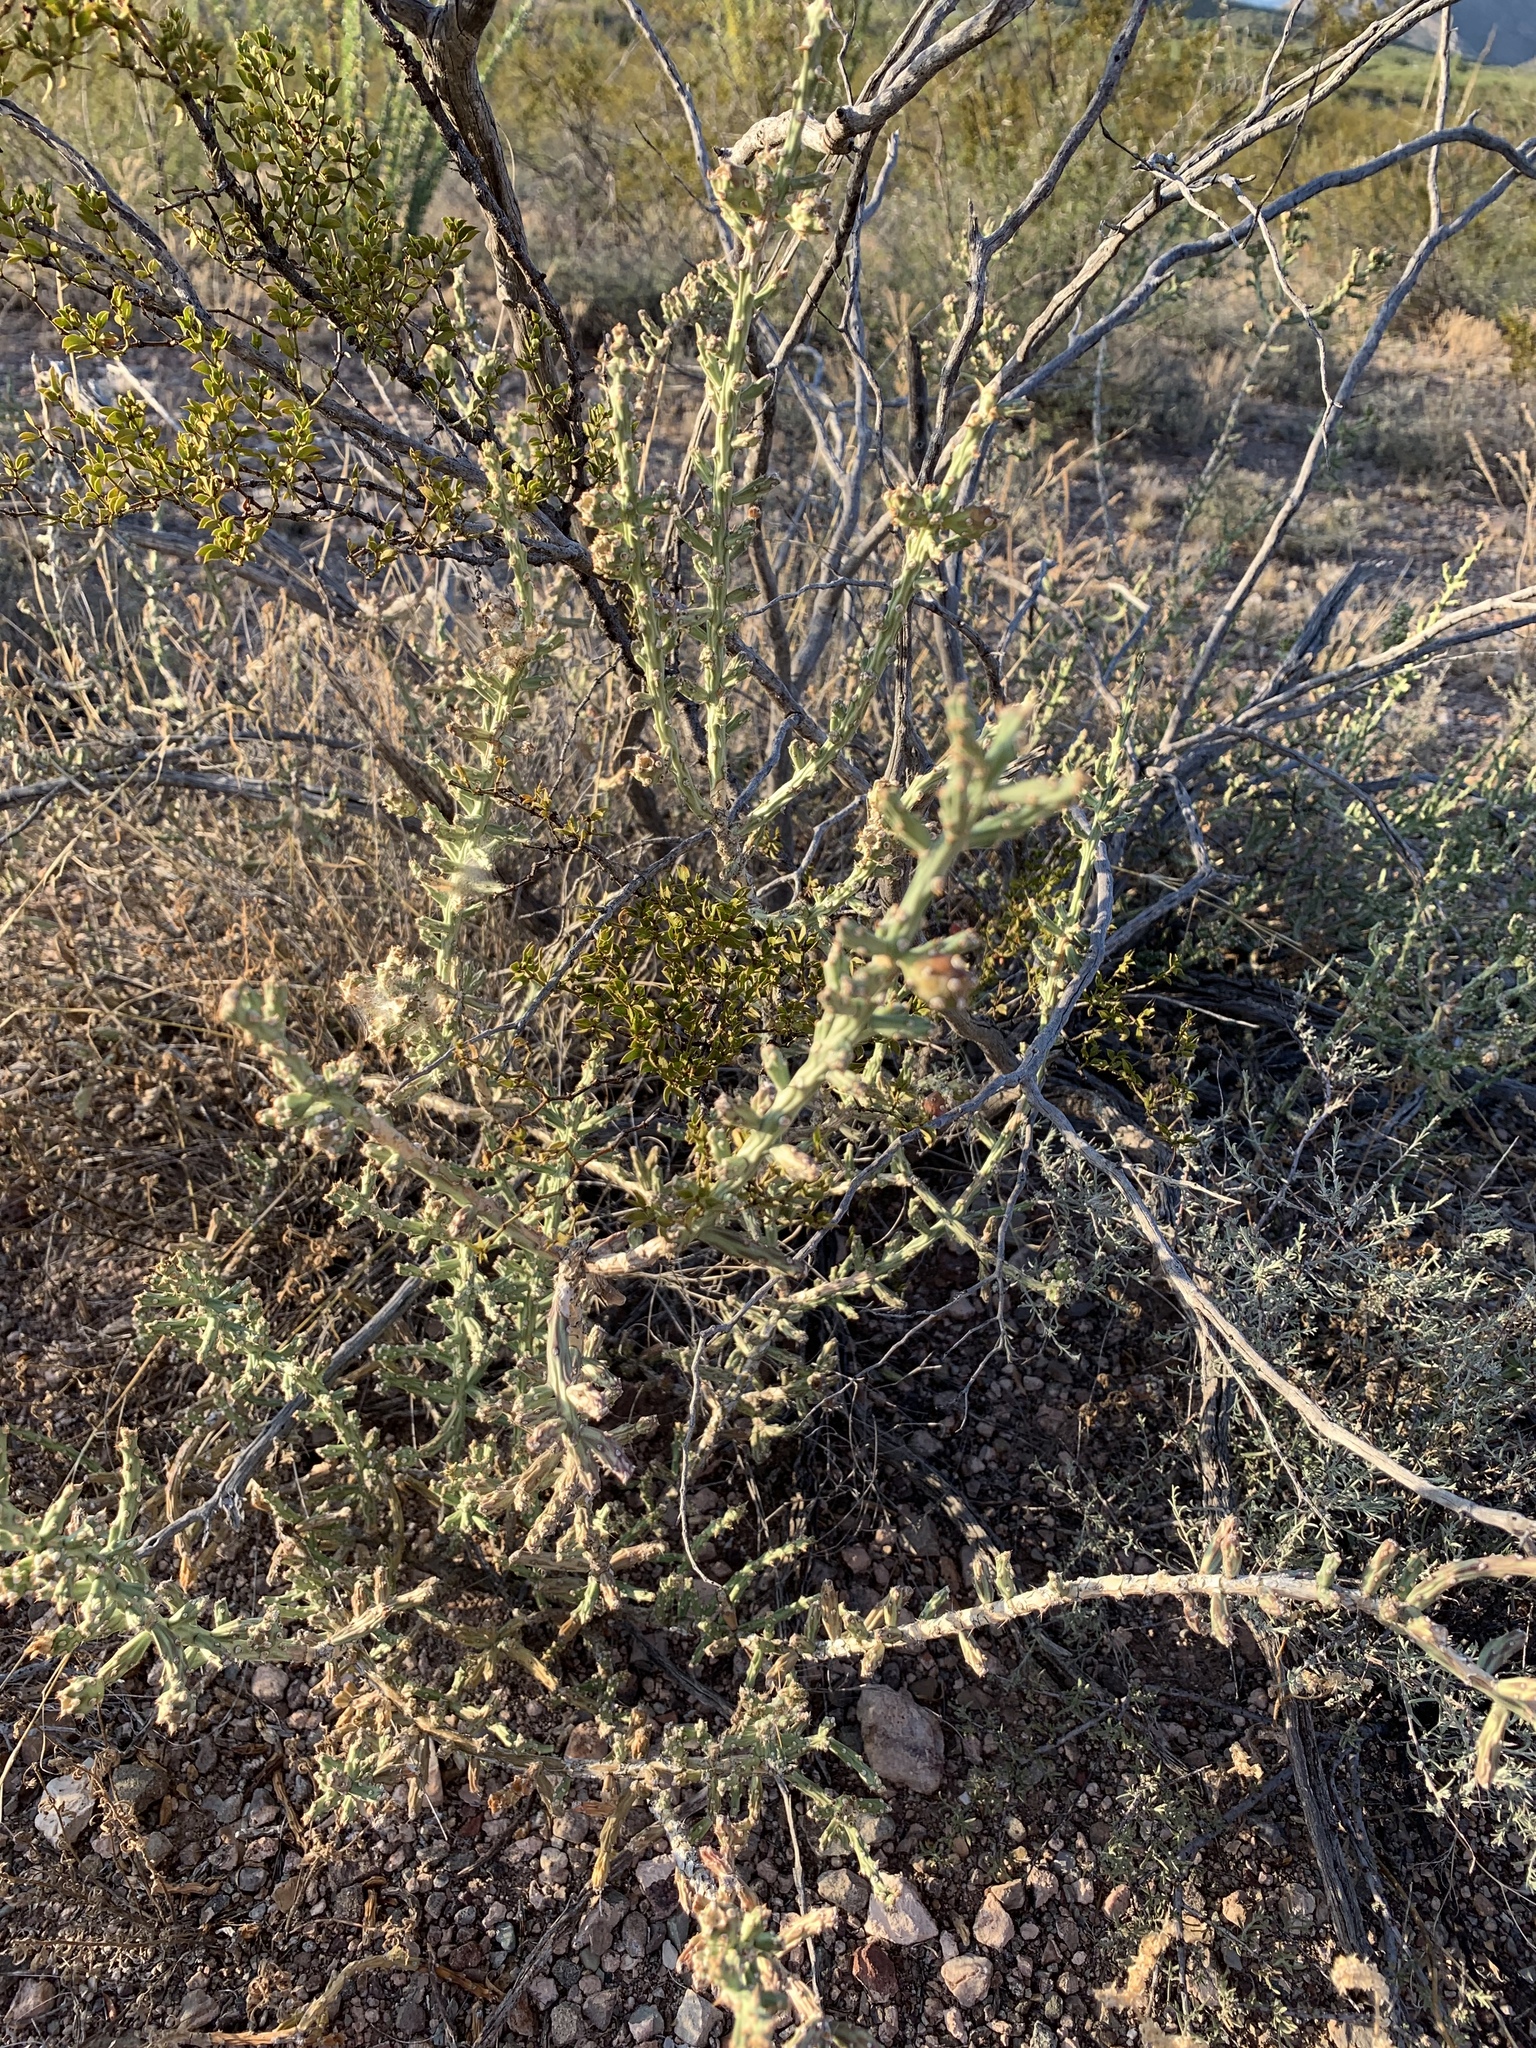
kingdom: Plantae
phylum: Tracheophyta
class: Magnoliopsida
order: Caryophyllales
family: Cactaceae
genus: Cylindropuntia
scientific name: Cylindropuntia leptocaulis
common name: Christmas cactus
